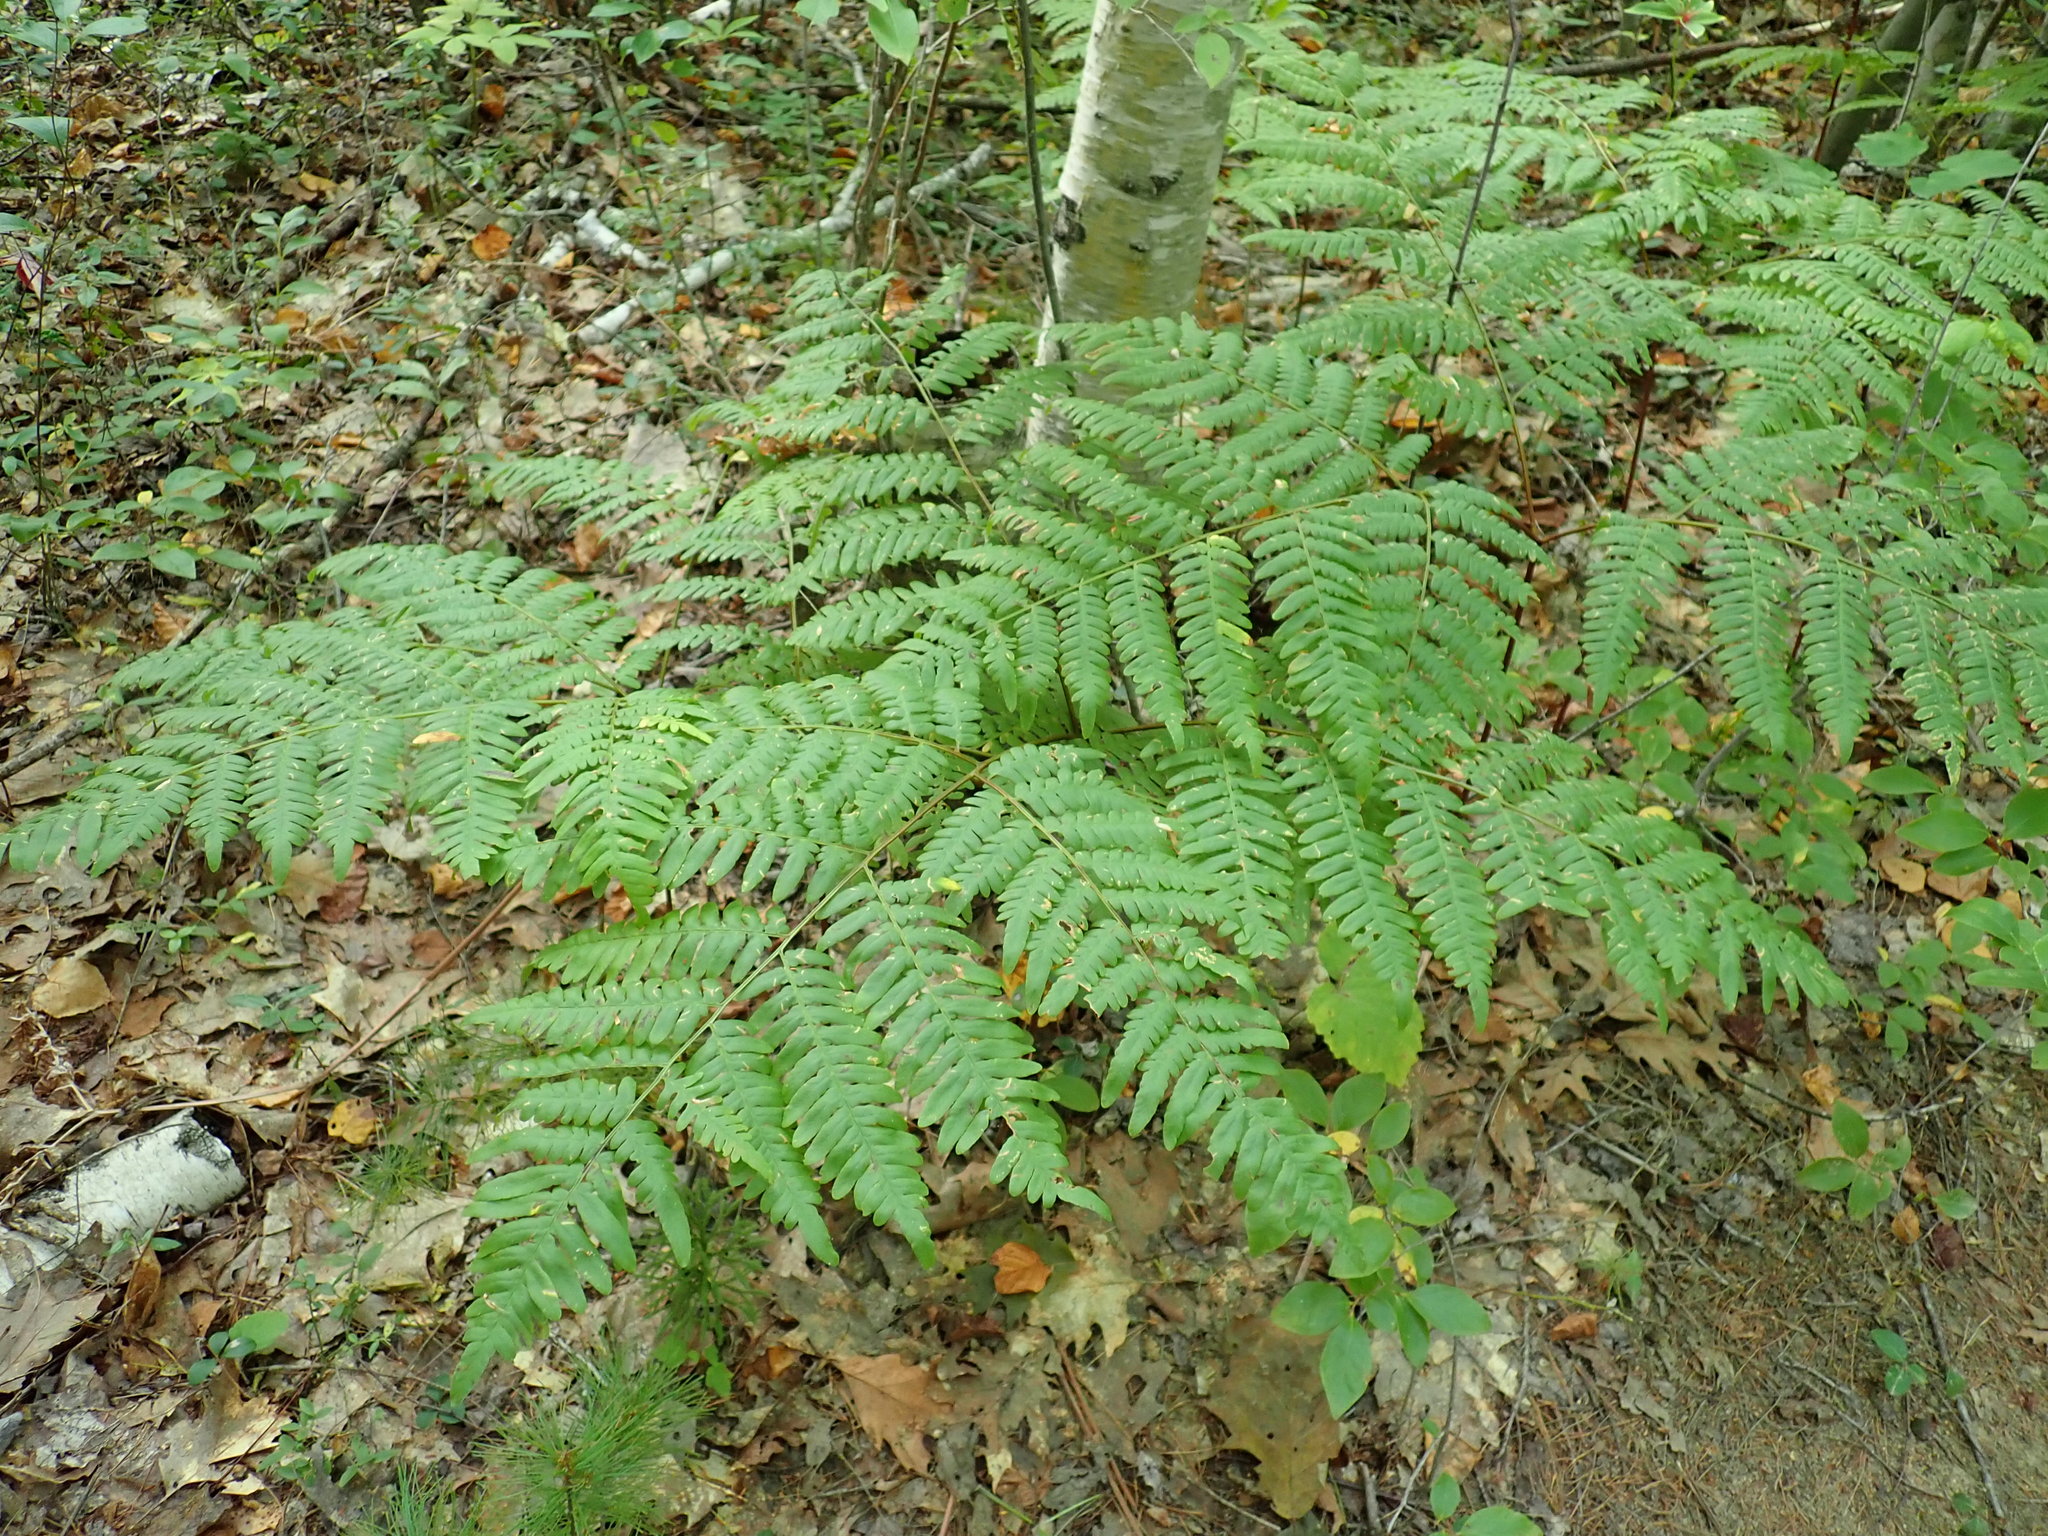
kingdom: Plantae
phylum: Tracheophyta
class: Polypodiopsida
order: Polypodiales
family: Dennstaedtiaceae
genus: Pteridium
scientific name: Pteridium aquilinum
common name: Bracken
